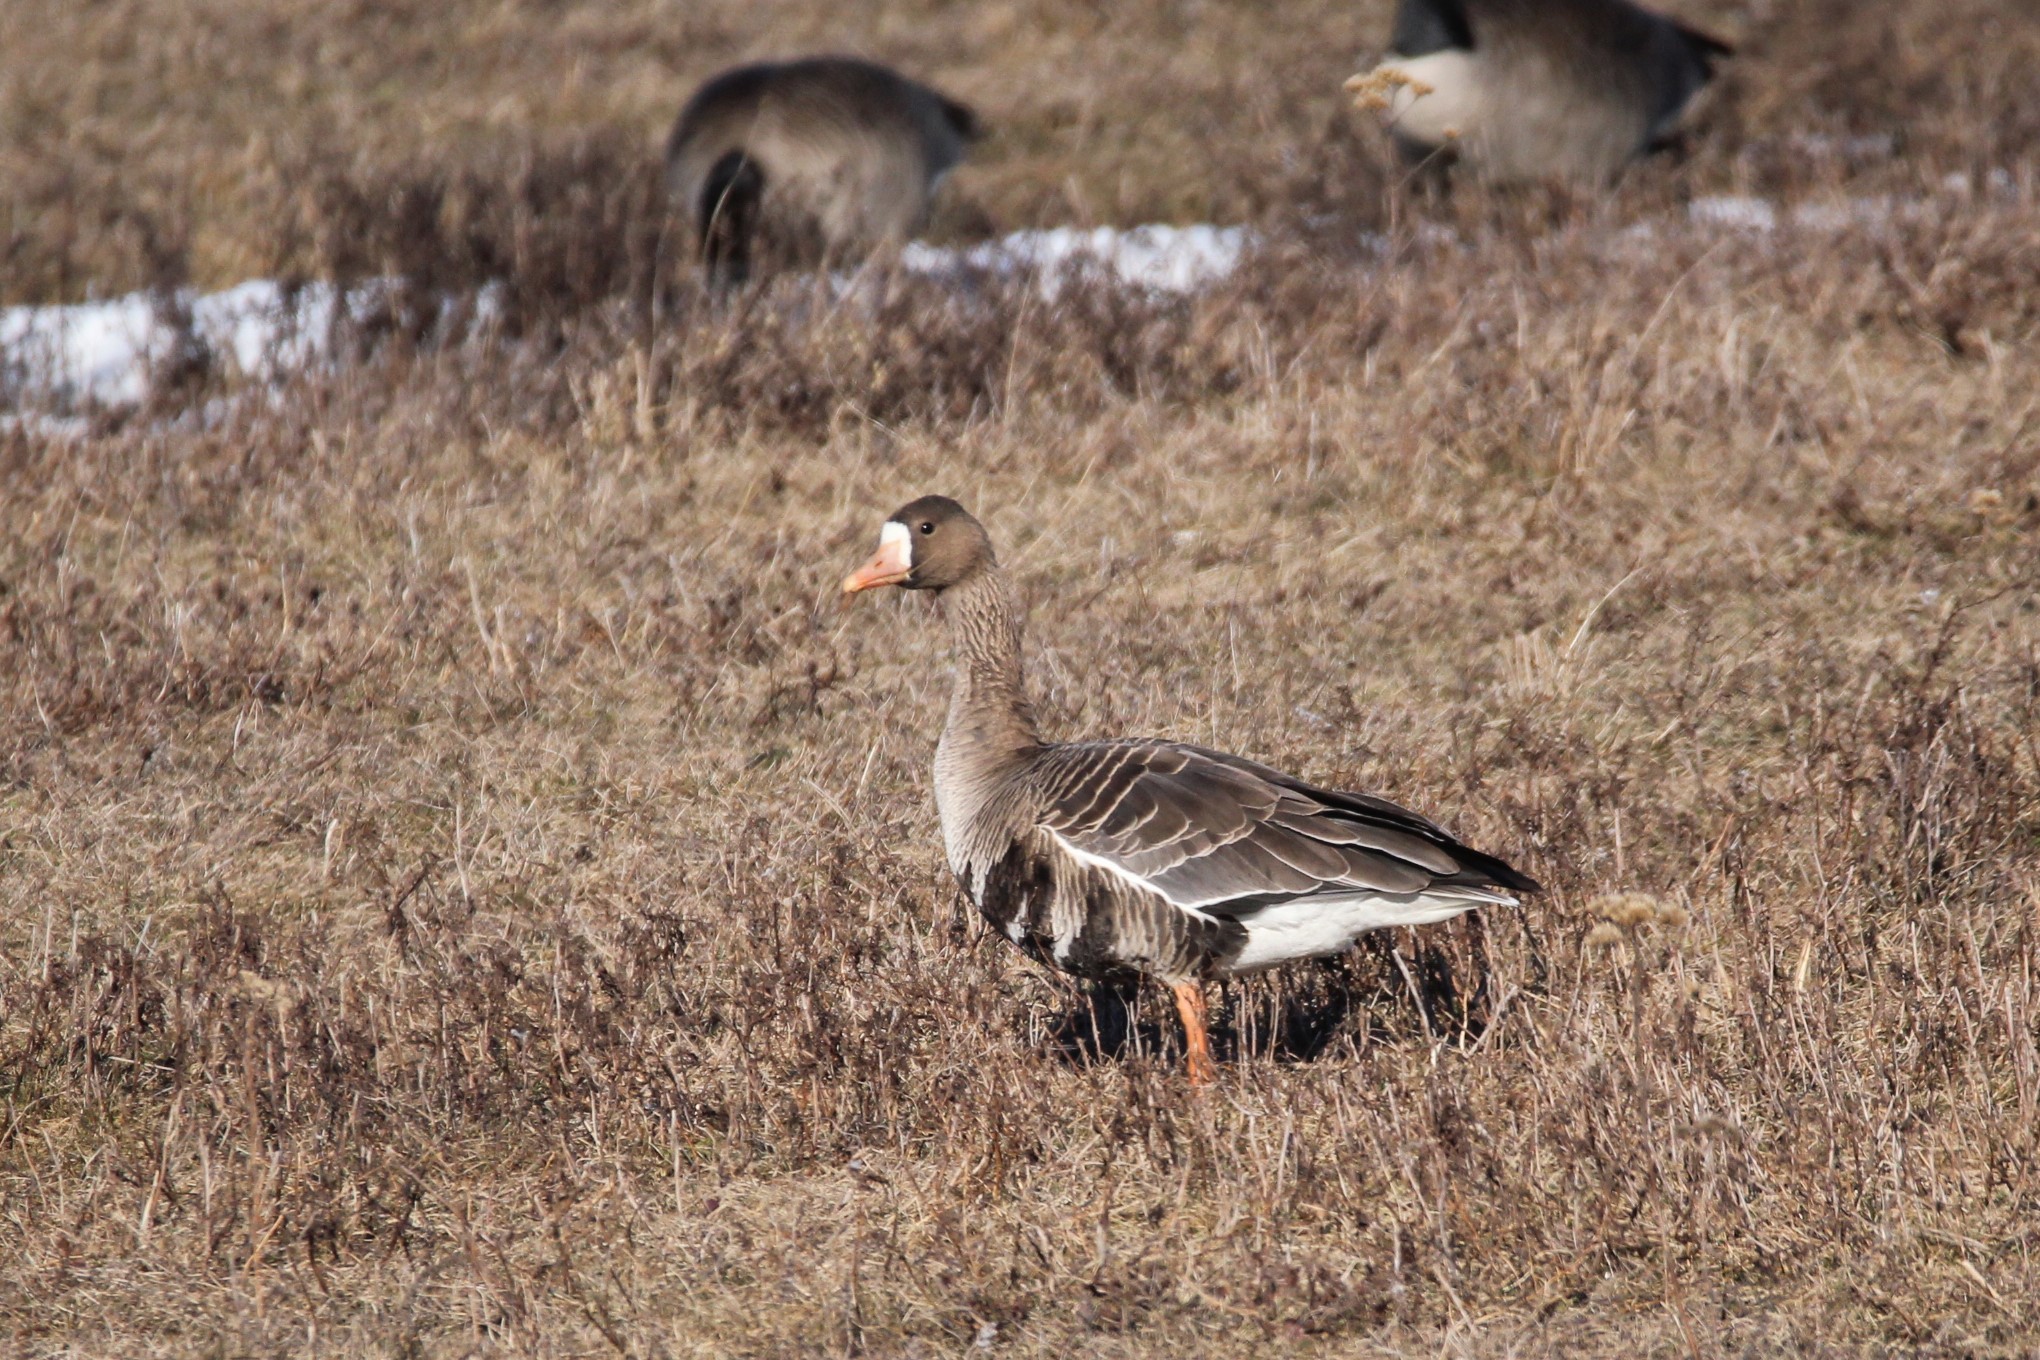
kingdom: Animalia
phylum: Chordata
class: Aves
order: Anseriformes
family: Anatidae
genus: Anser
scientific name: Anser albifrons
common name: Greater white-fronted goose
